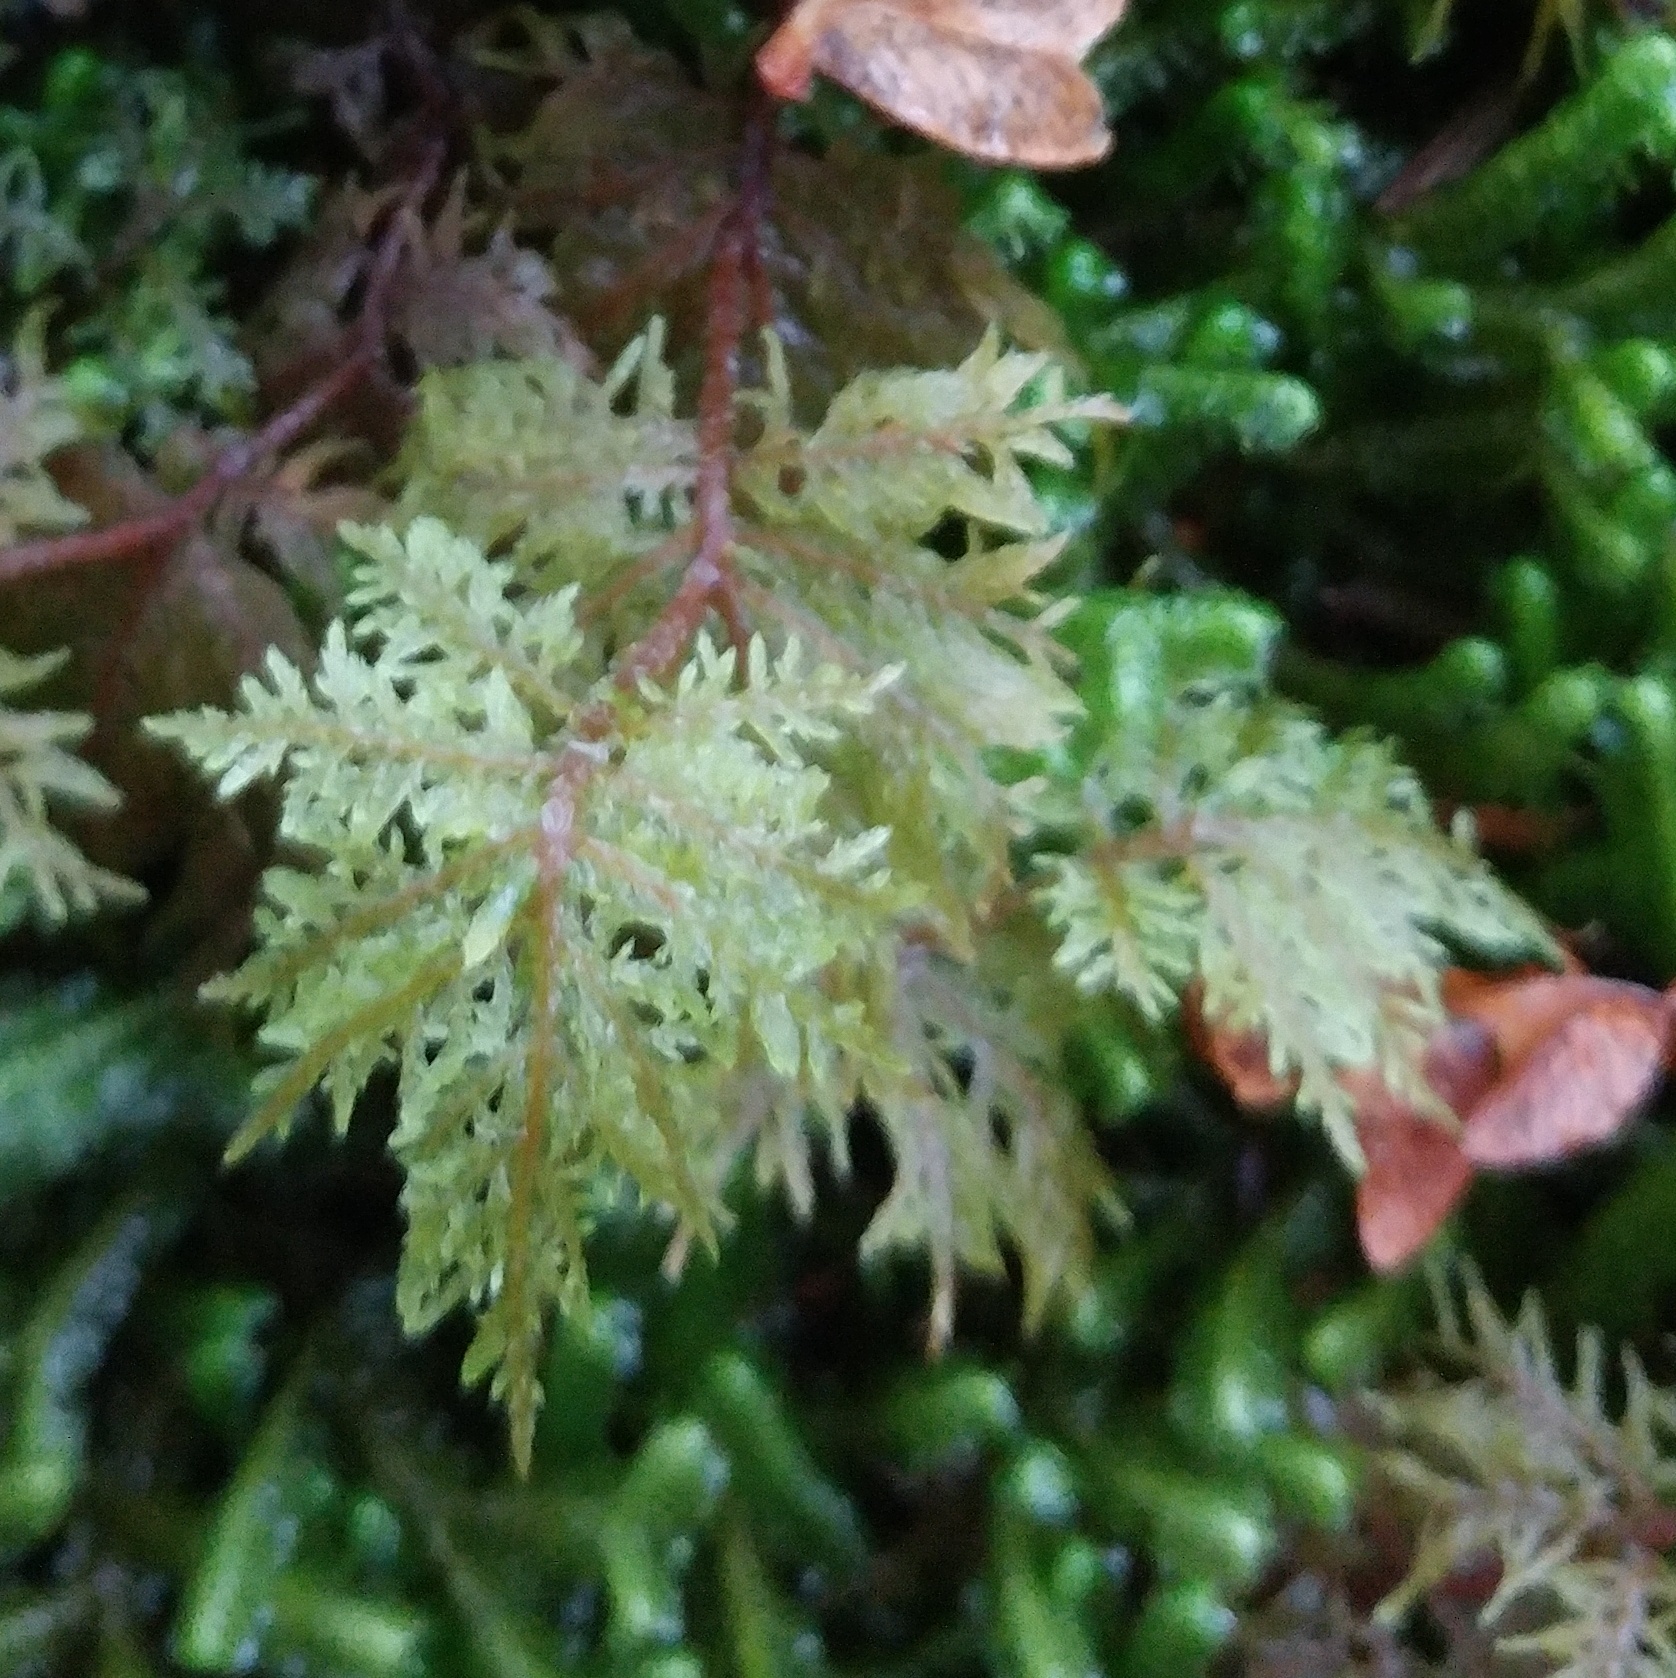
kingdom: Plantae
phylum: Bryophyta
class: Bryopsida
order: Hypnales
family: Hylocomiaceae
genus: Hylocomium
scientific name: Hylocomium splendens
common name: Stairstep moss
